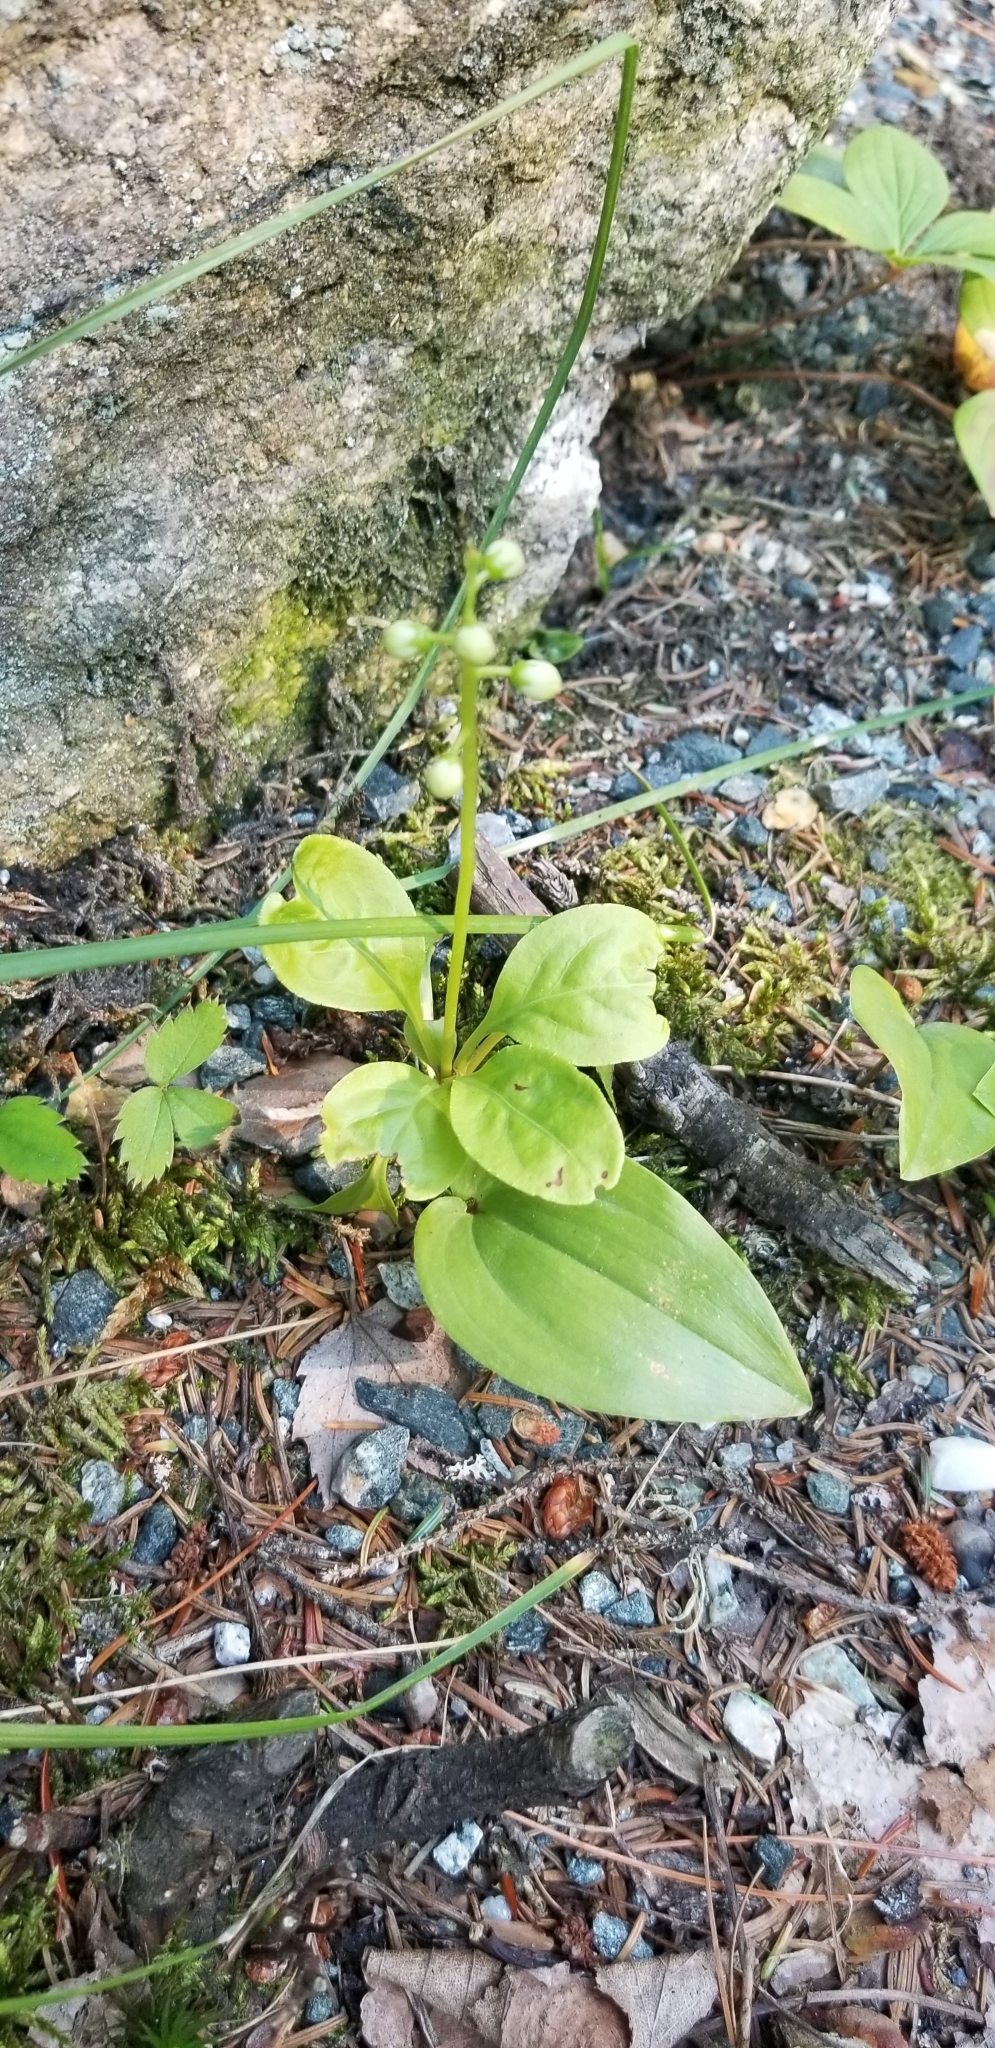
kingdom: Plantae
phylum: Tracheophyta
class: Magnoliopsida
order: Ericales
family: Ericaceae
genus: Pyrola
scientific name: Pyrola elliptica
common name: Shinleaf
